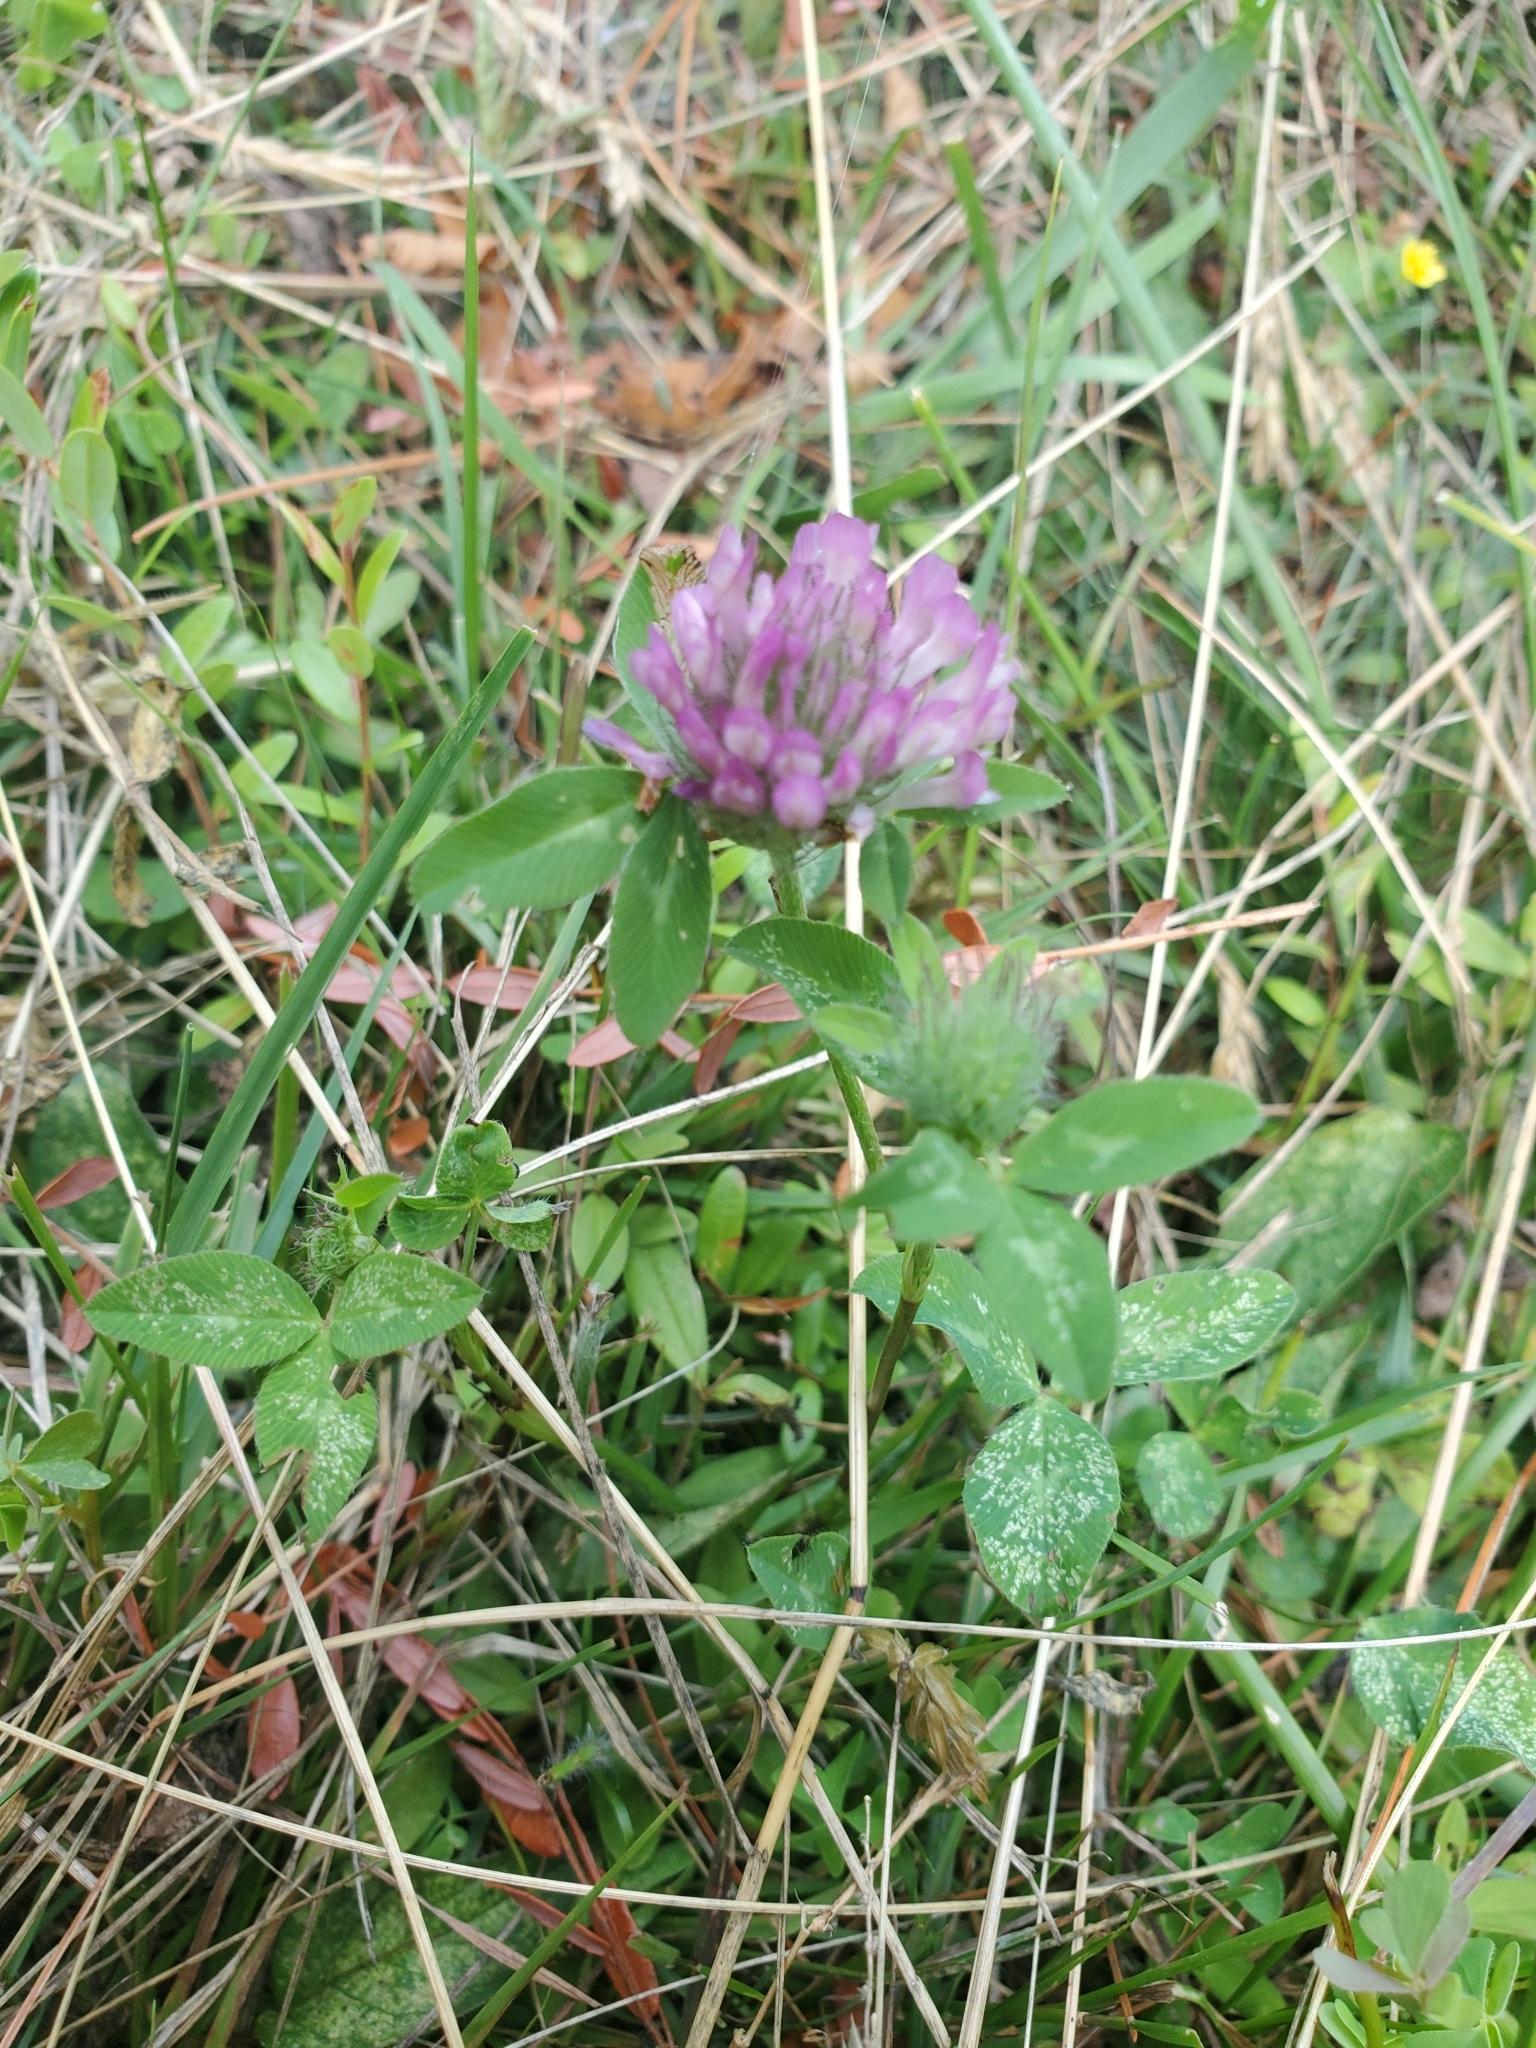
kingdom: Plantae
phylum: Tracheophyta
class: Magnoliopsida
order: Fabales
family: Fabaceae
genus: Trifolium
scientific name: Trifolium pratense
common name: Red clover
